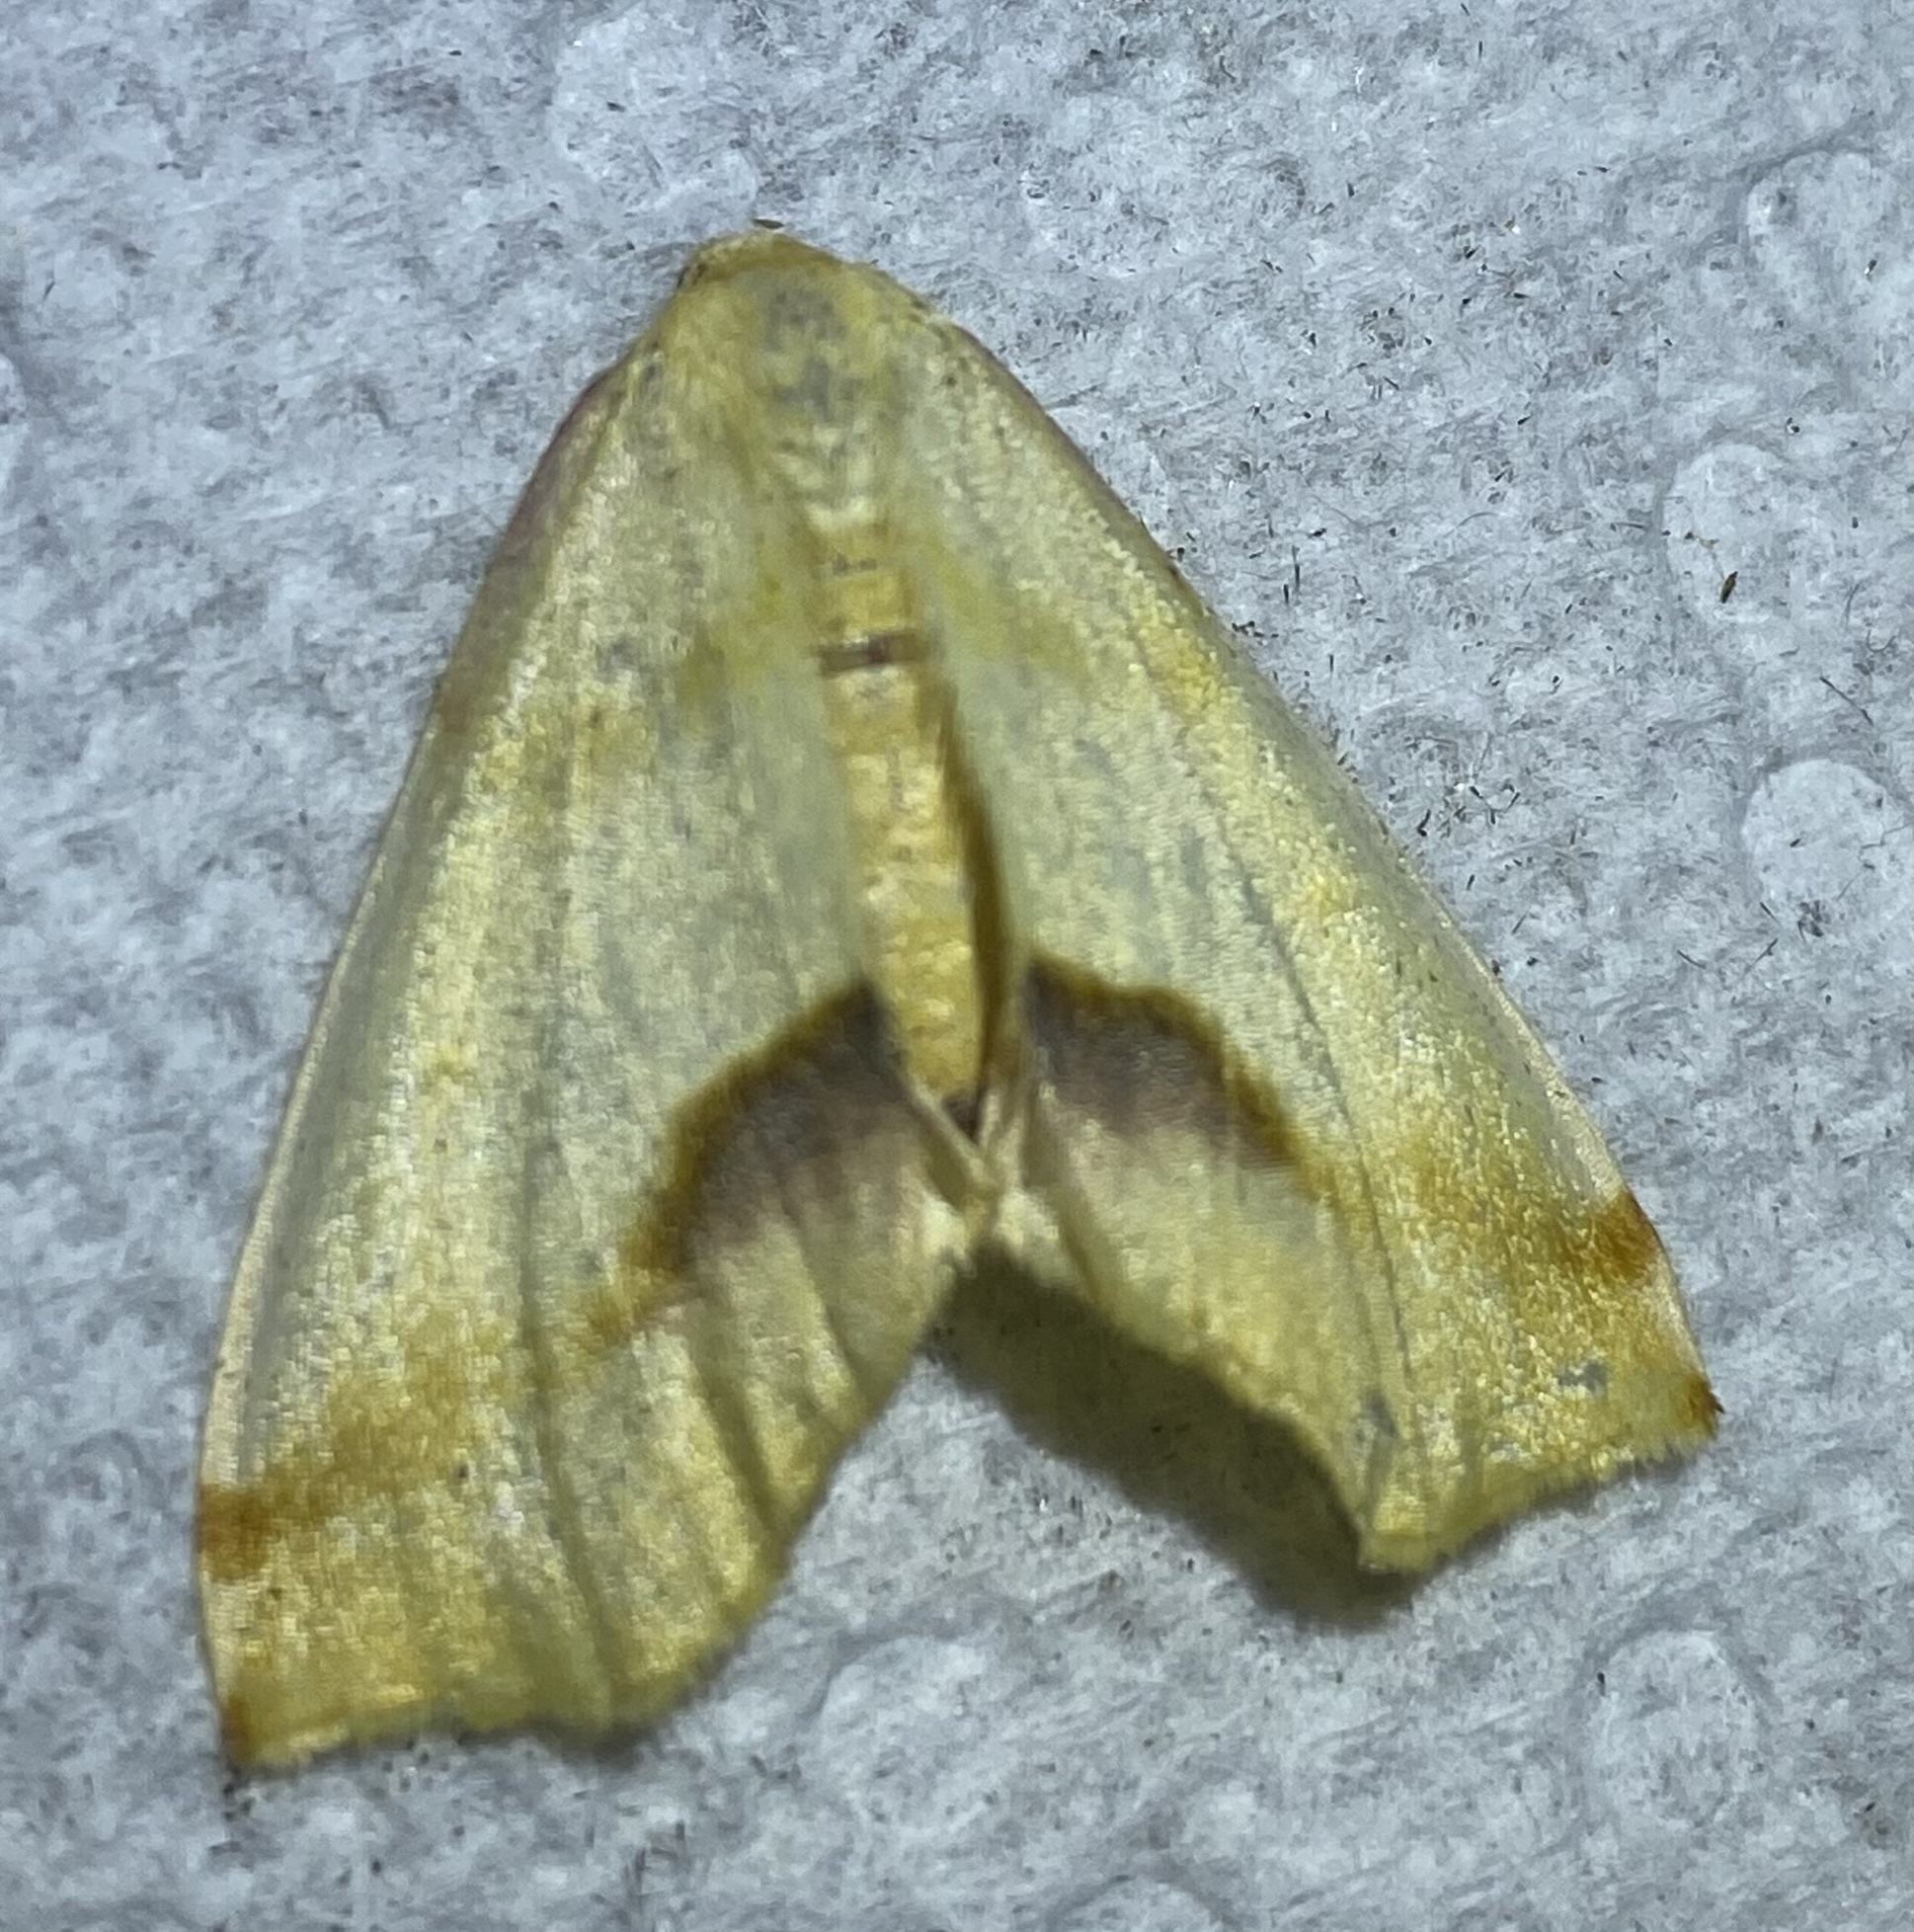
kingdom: Animalia
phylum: Arthropoda
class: Insecta
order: Lepidoptera
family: Geometridae
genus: Plagodis
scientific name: Plagodis serinaria
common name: Lemon plagodis
